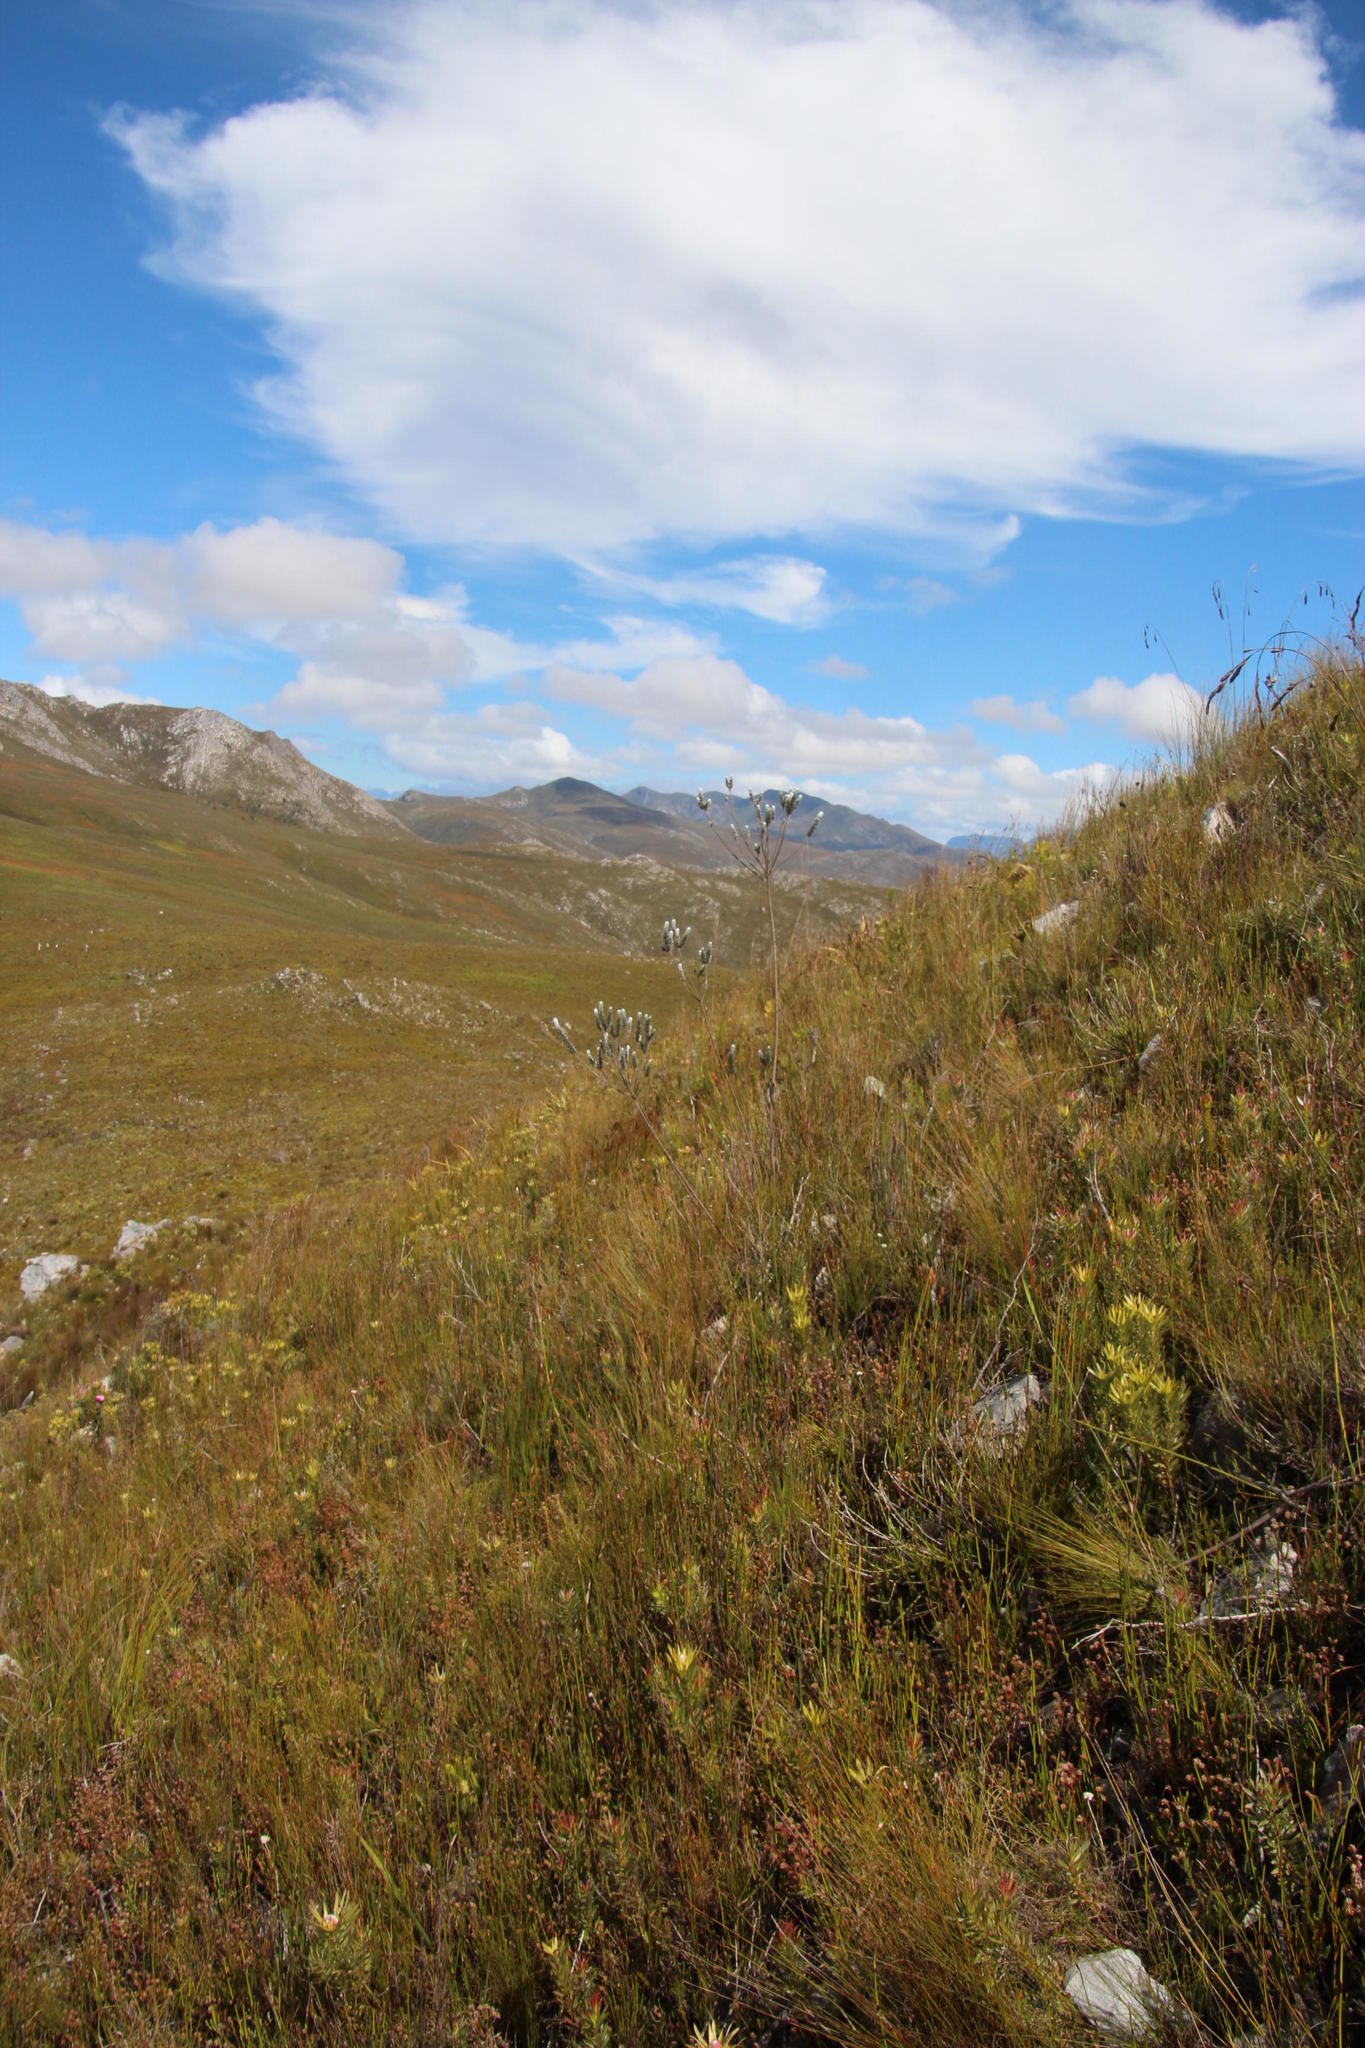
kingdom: Plantae
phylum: Tracheophyta
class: Magnoliopsida
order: Fabales
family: Fabaceae
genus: Liparia
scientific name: Liparia vestita
